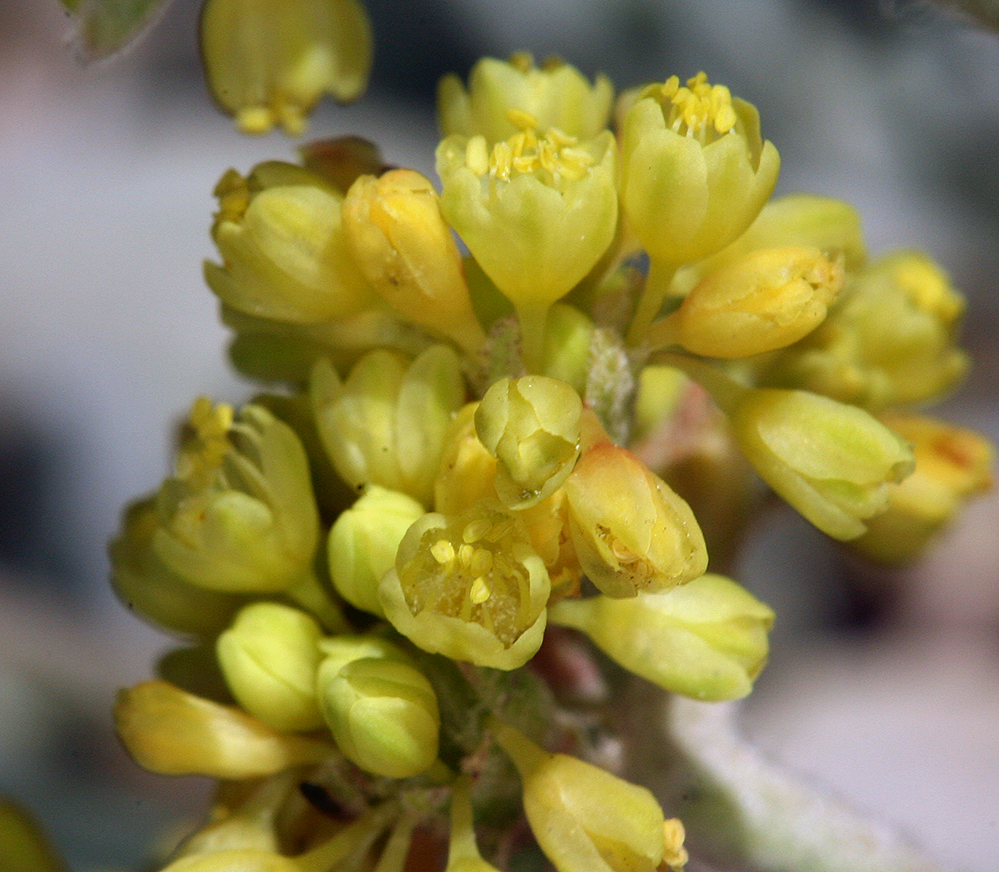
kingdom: Plantae
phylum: Tracheophyta
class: Magnoliopsida
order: Caryophyllales
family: Polygonaceae
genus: Eriogonum
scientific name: Eriogonum incanum
